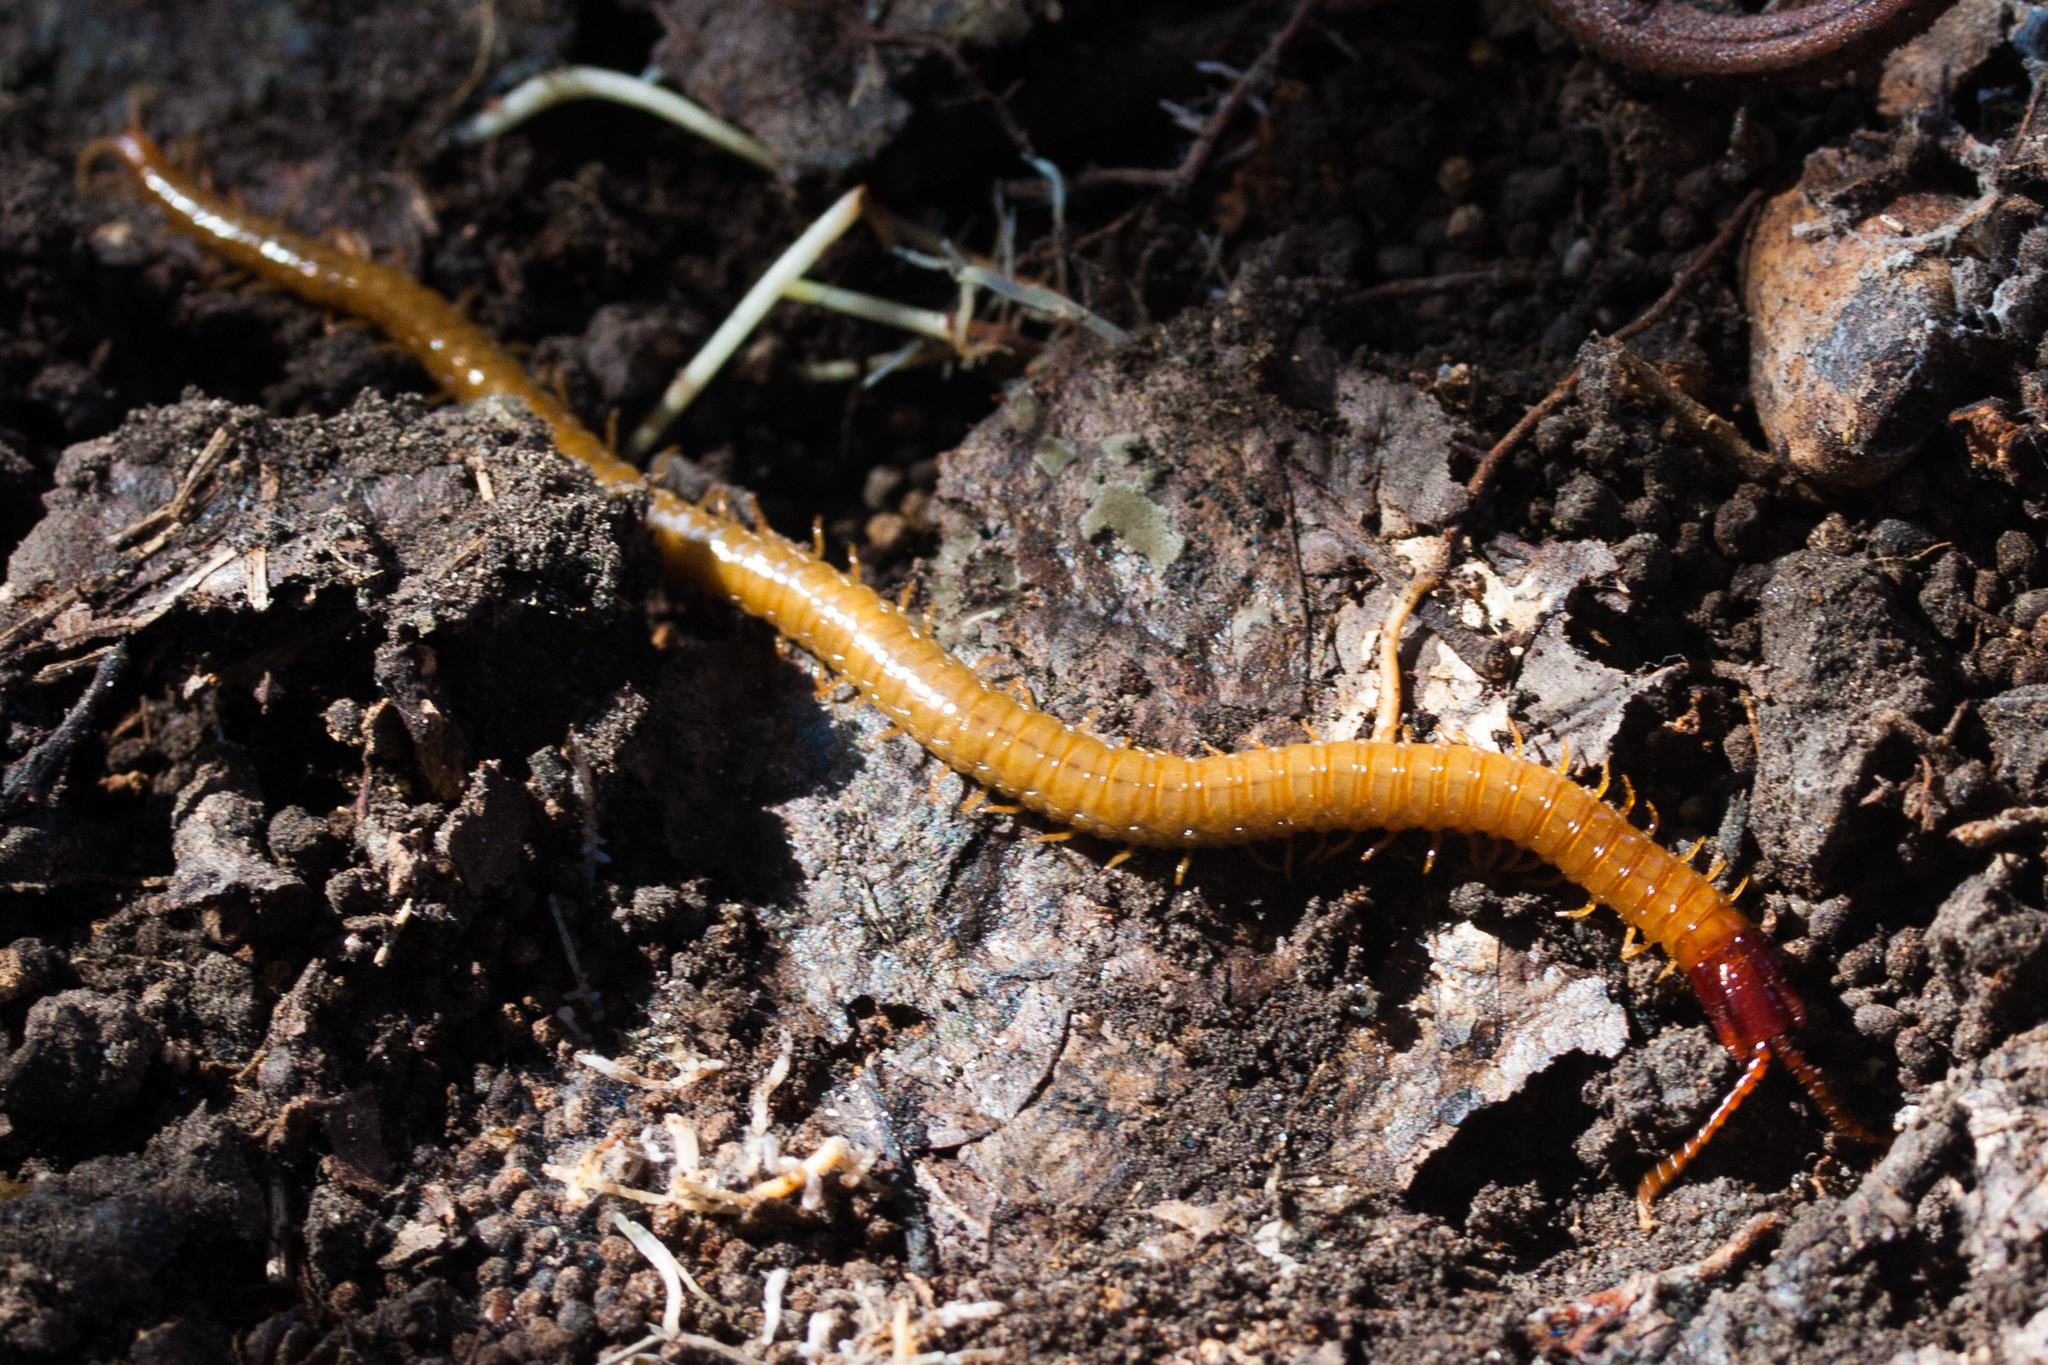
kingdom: Animalia
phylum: Arthropoda
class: Chilopoda
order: Geophilomorpha
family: Mecistocephalidae
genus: Dicellophilus
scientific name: Dicellophilus limatus
